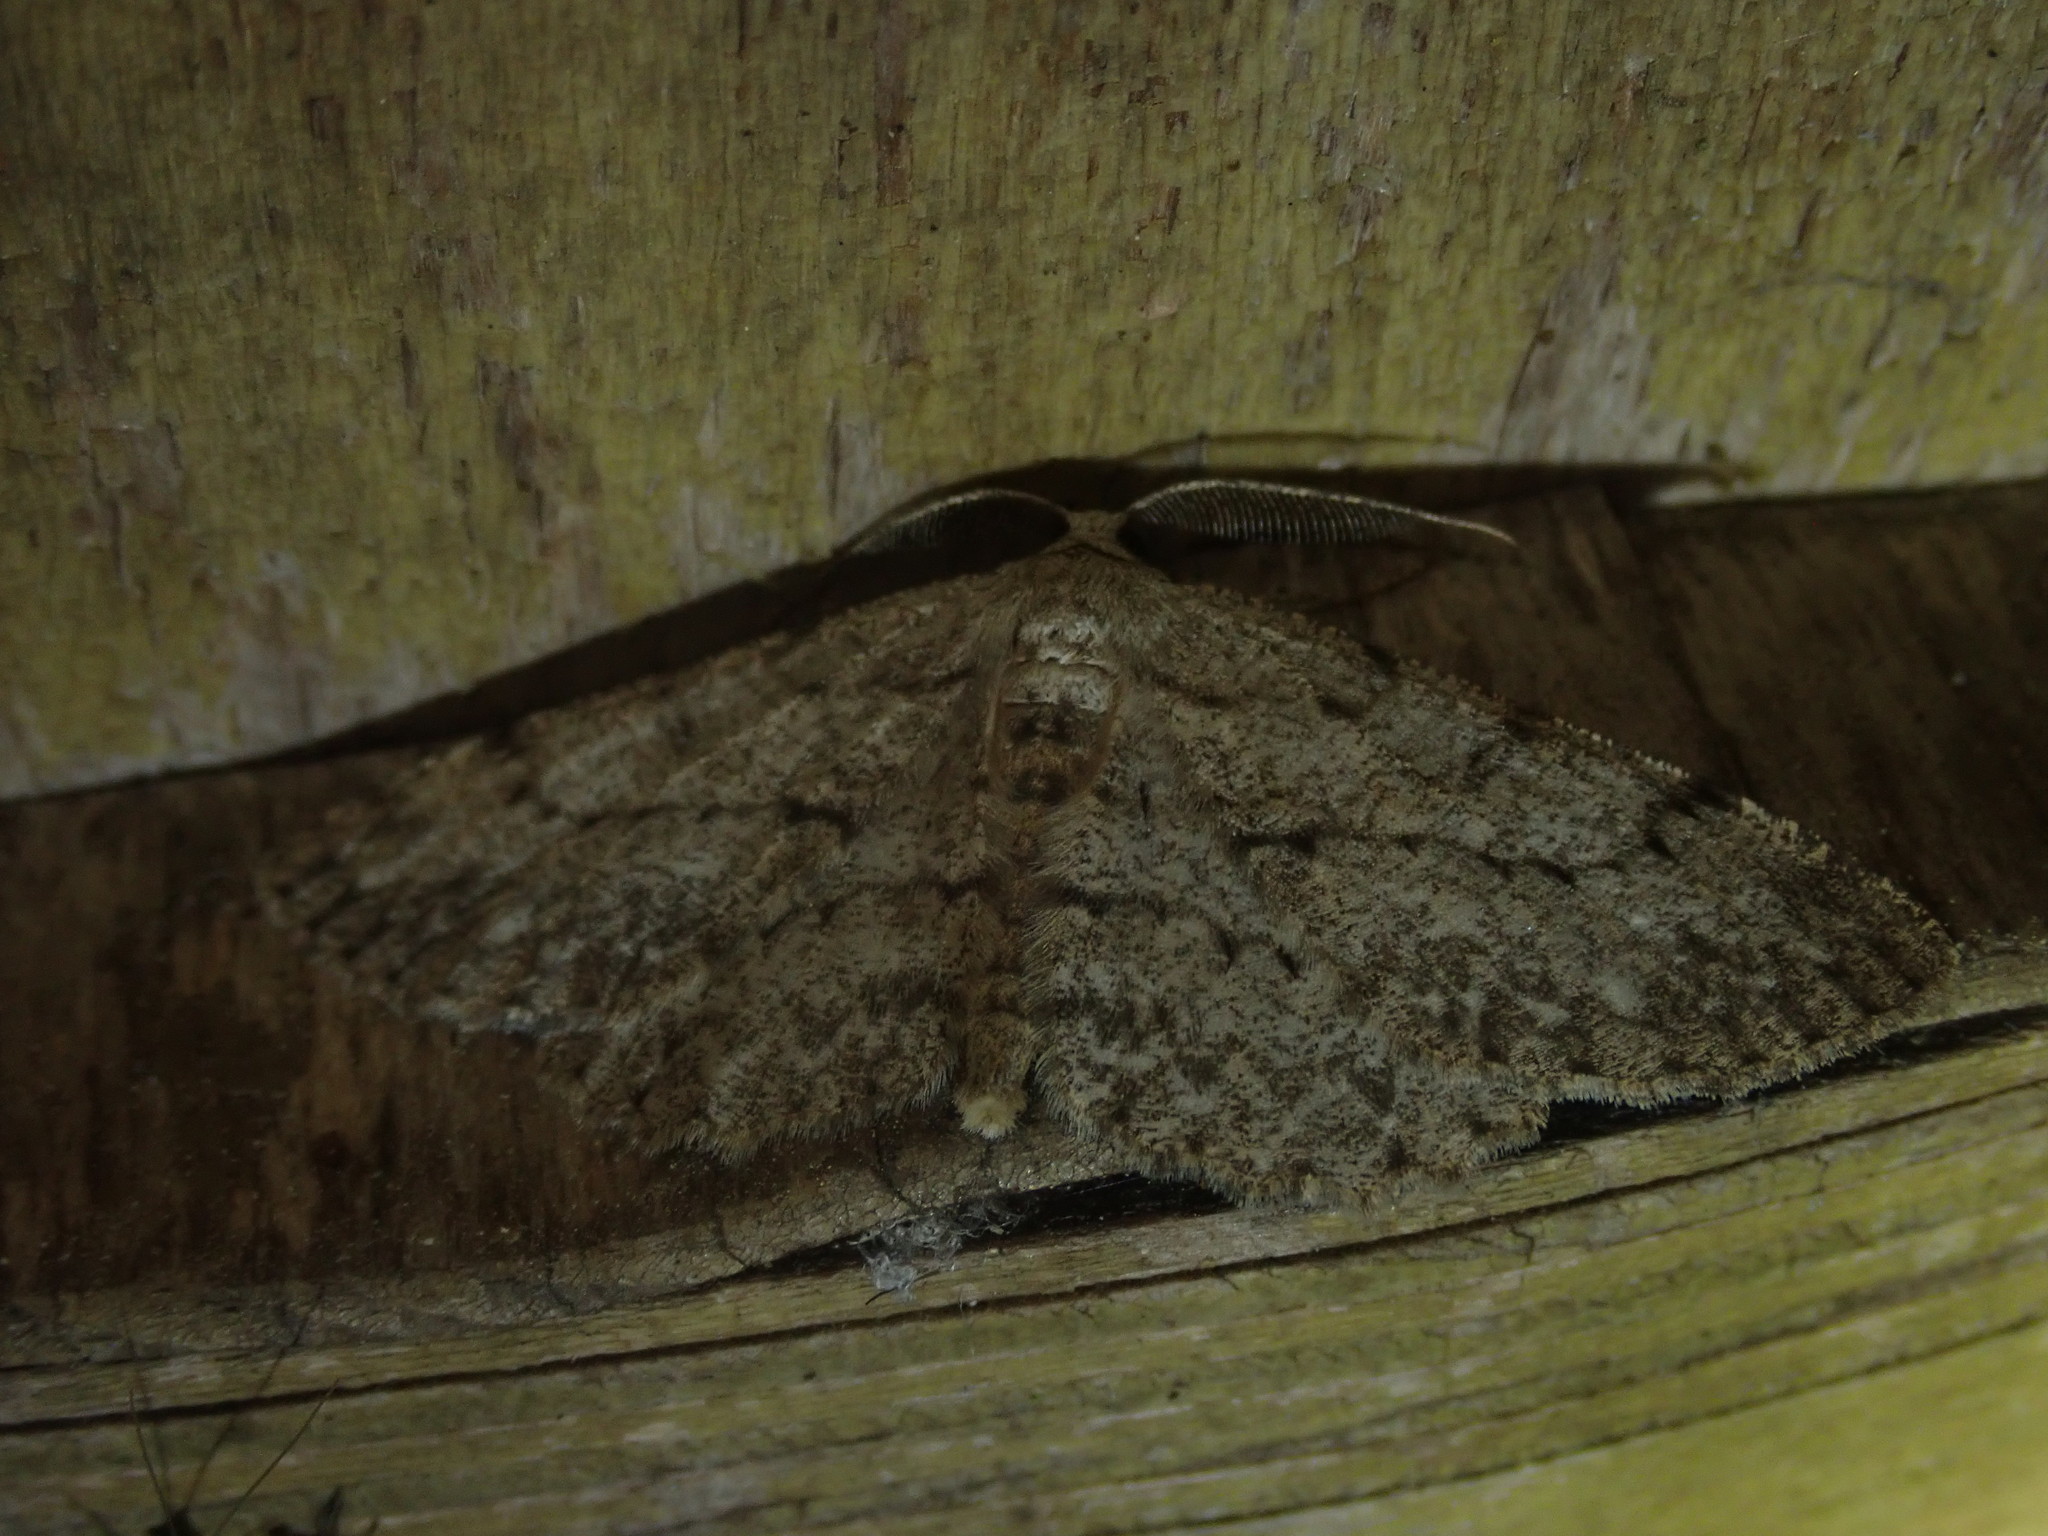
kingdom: Animalia
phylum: Arthropoda
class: Insecta
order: Lepidoptera
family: Geometridae
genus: Hypomecis
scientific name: Hypomecis punctinalis
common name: Pale oak beauty
